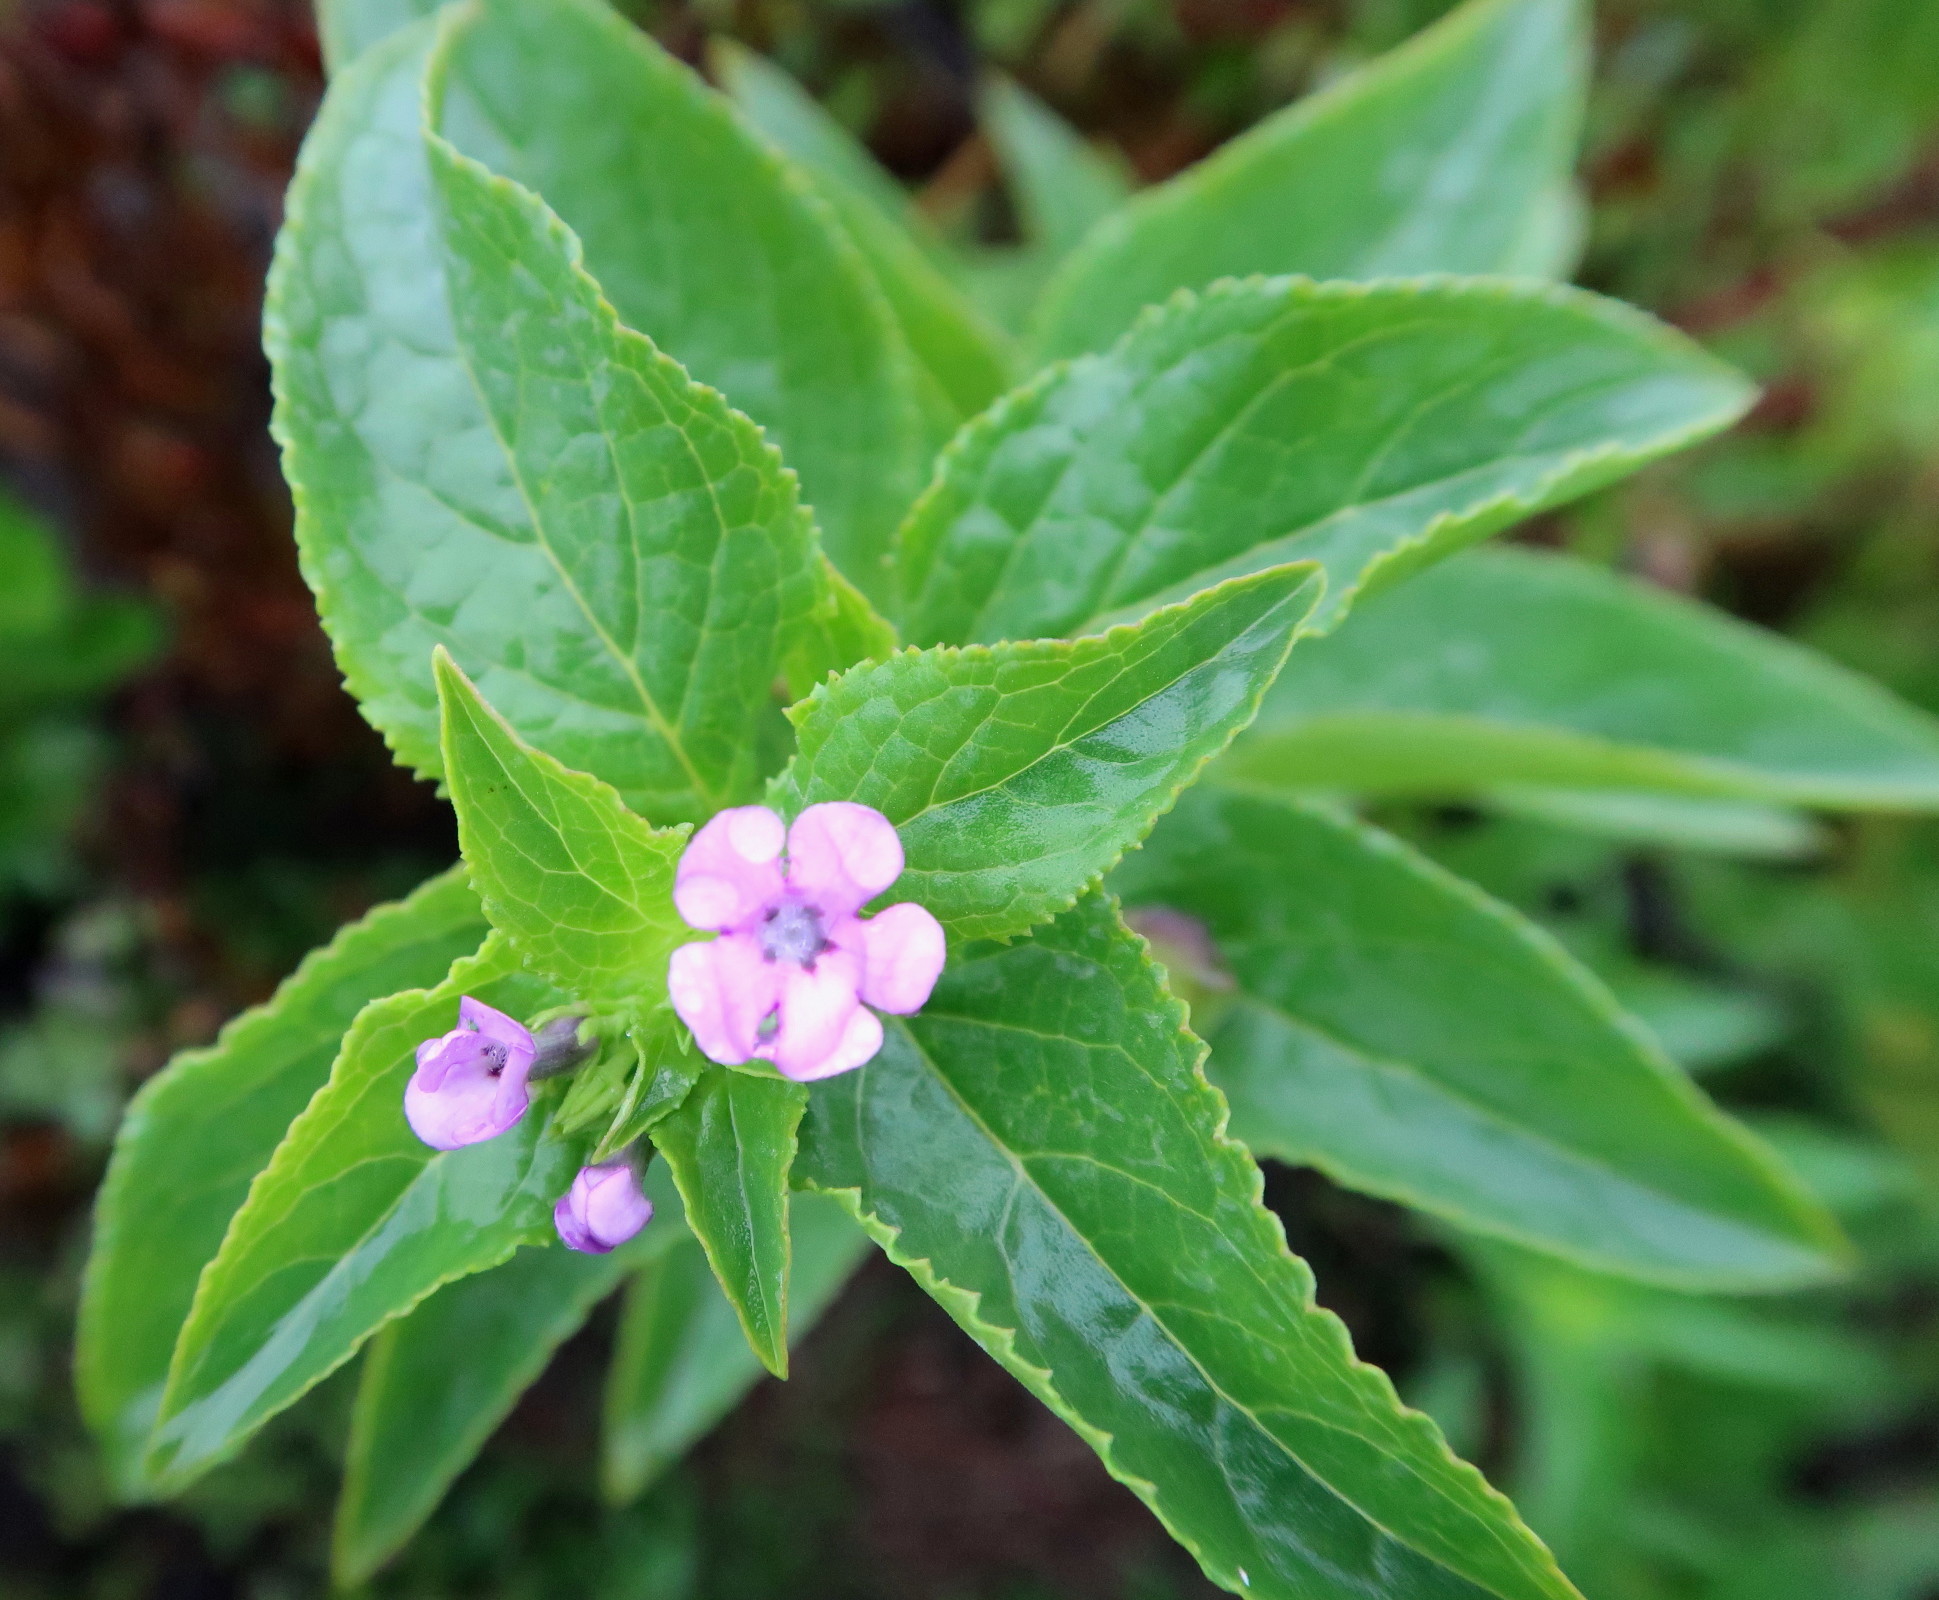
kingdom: Plantae
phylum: Tracheophyta
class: Magnoliopsida
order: Lamiales
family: Scrophulariaceae
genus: Teedia
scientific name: Teedia lucida
